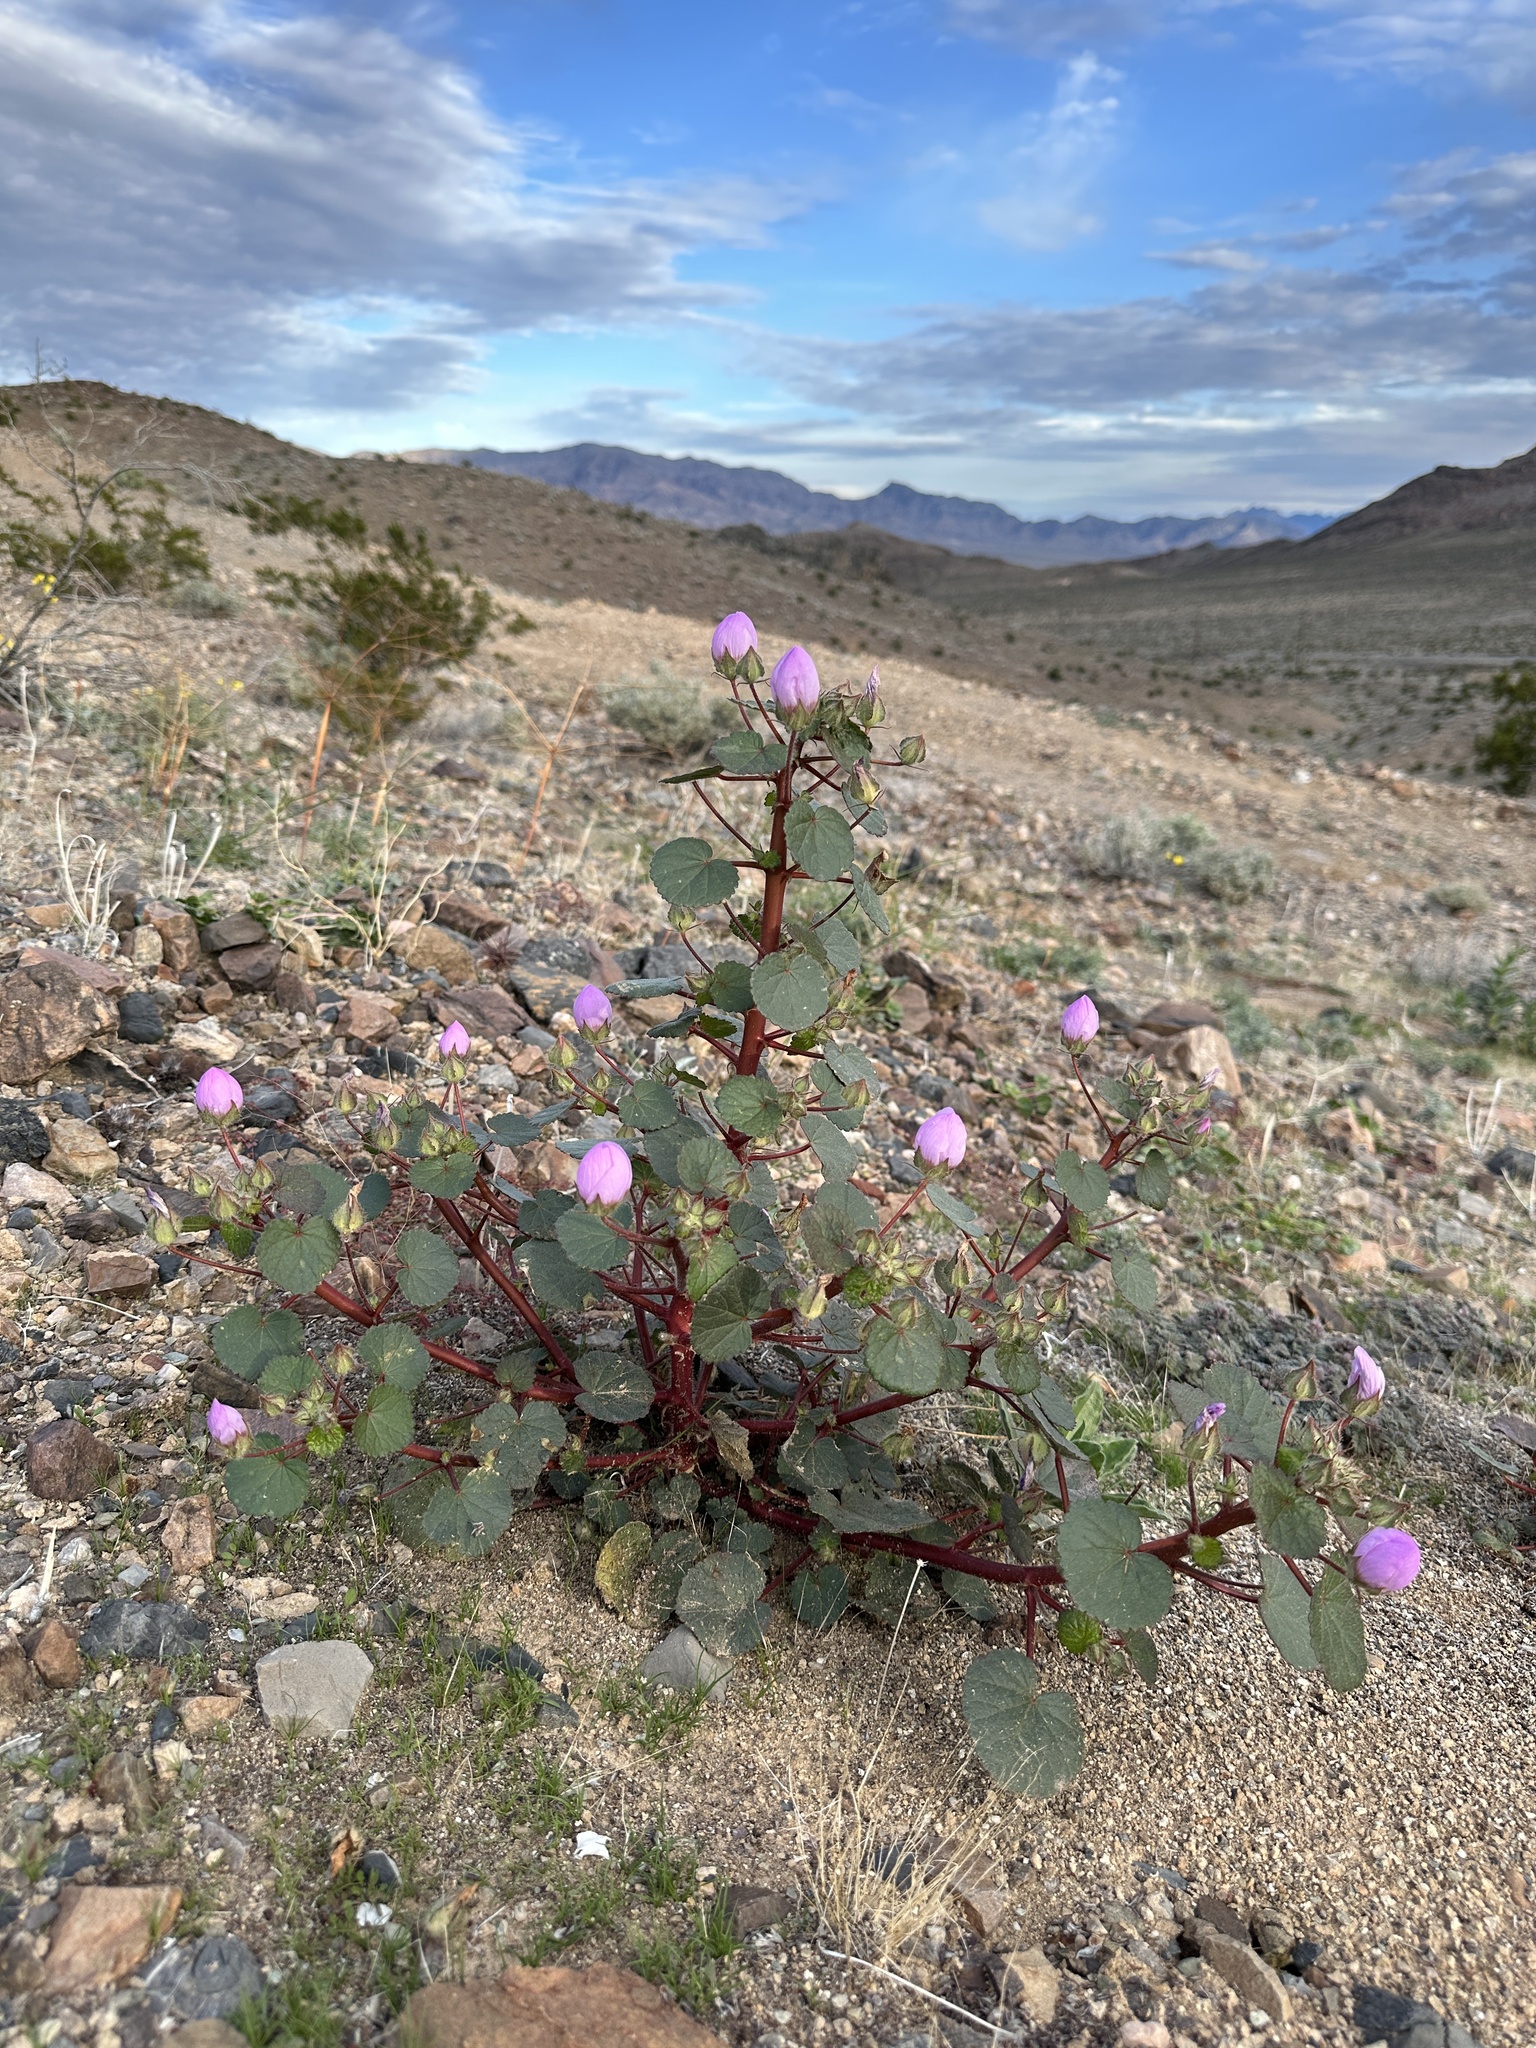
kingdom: Plantae
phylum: Tracheophyta
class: Magnoliopsida
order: Malvales
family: Malvaceae
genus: Eremalche
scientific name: Eremalche rotundifolia
